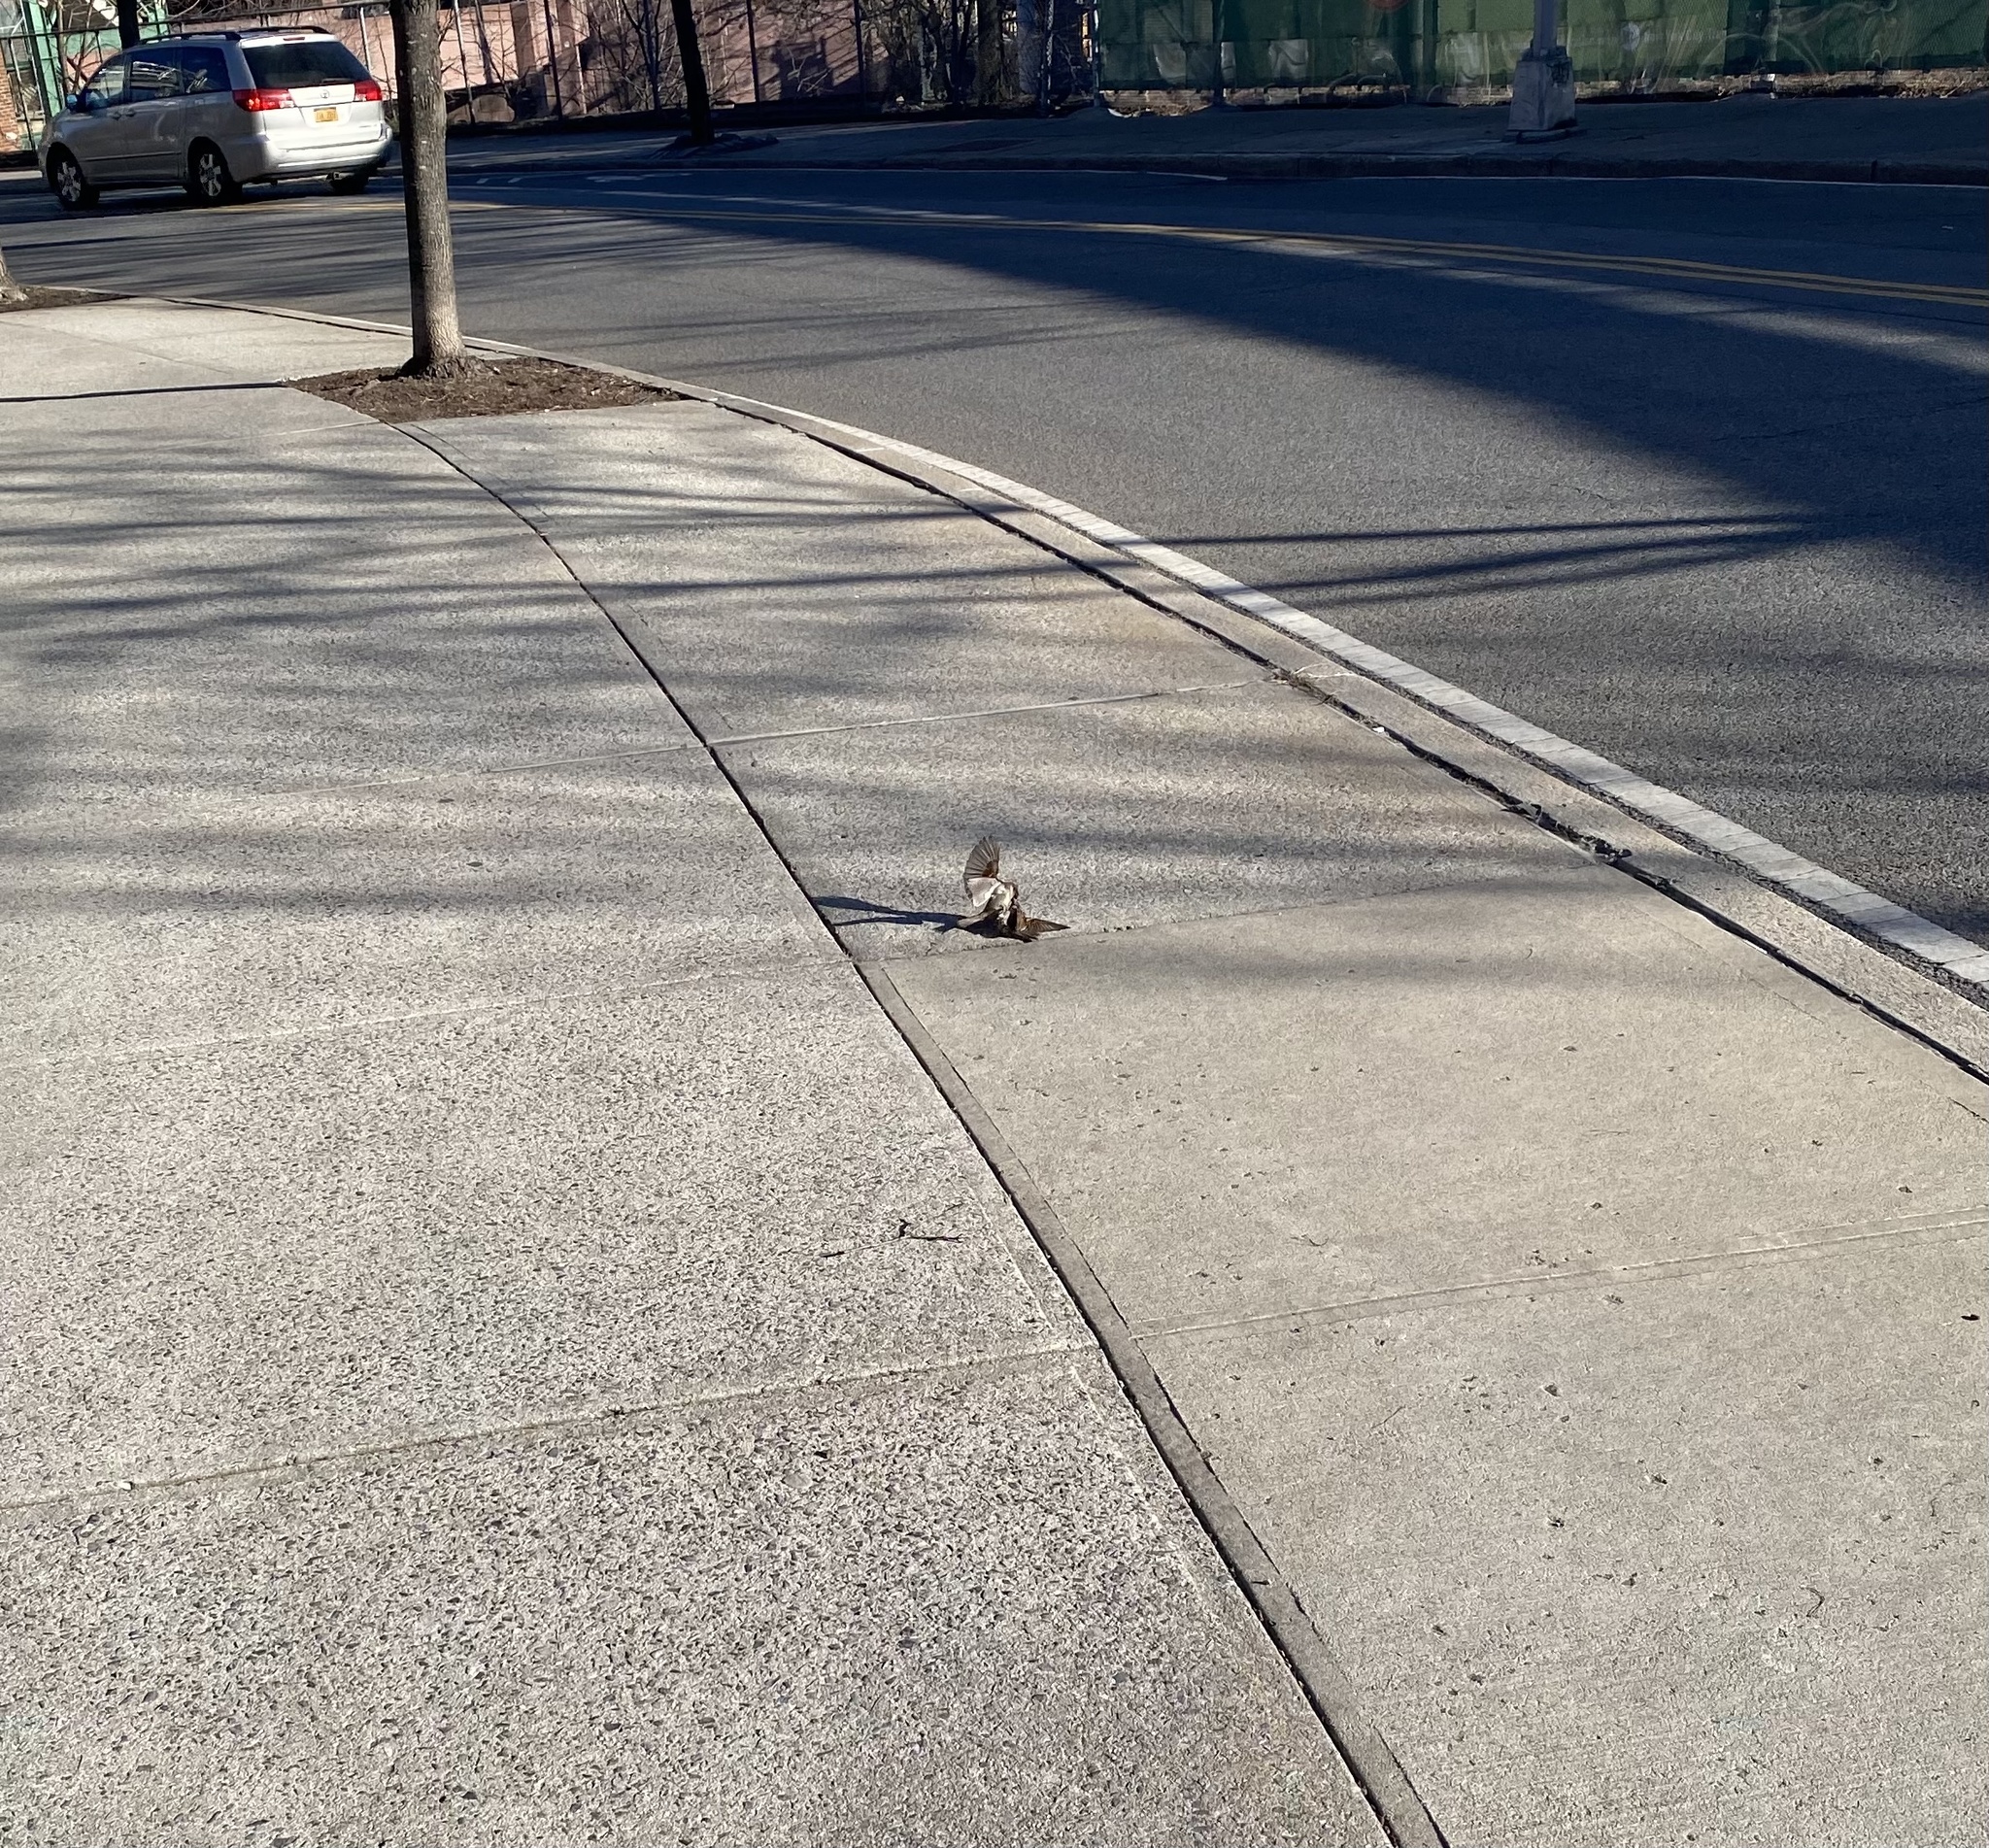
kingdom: Animalia
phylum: Chordata
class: Aves
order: Passeriformes
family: Passeridae
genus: Passer
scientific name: Passer domesticus
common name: House sparrow
